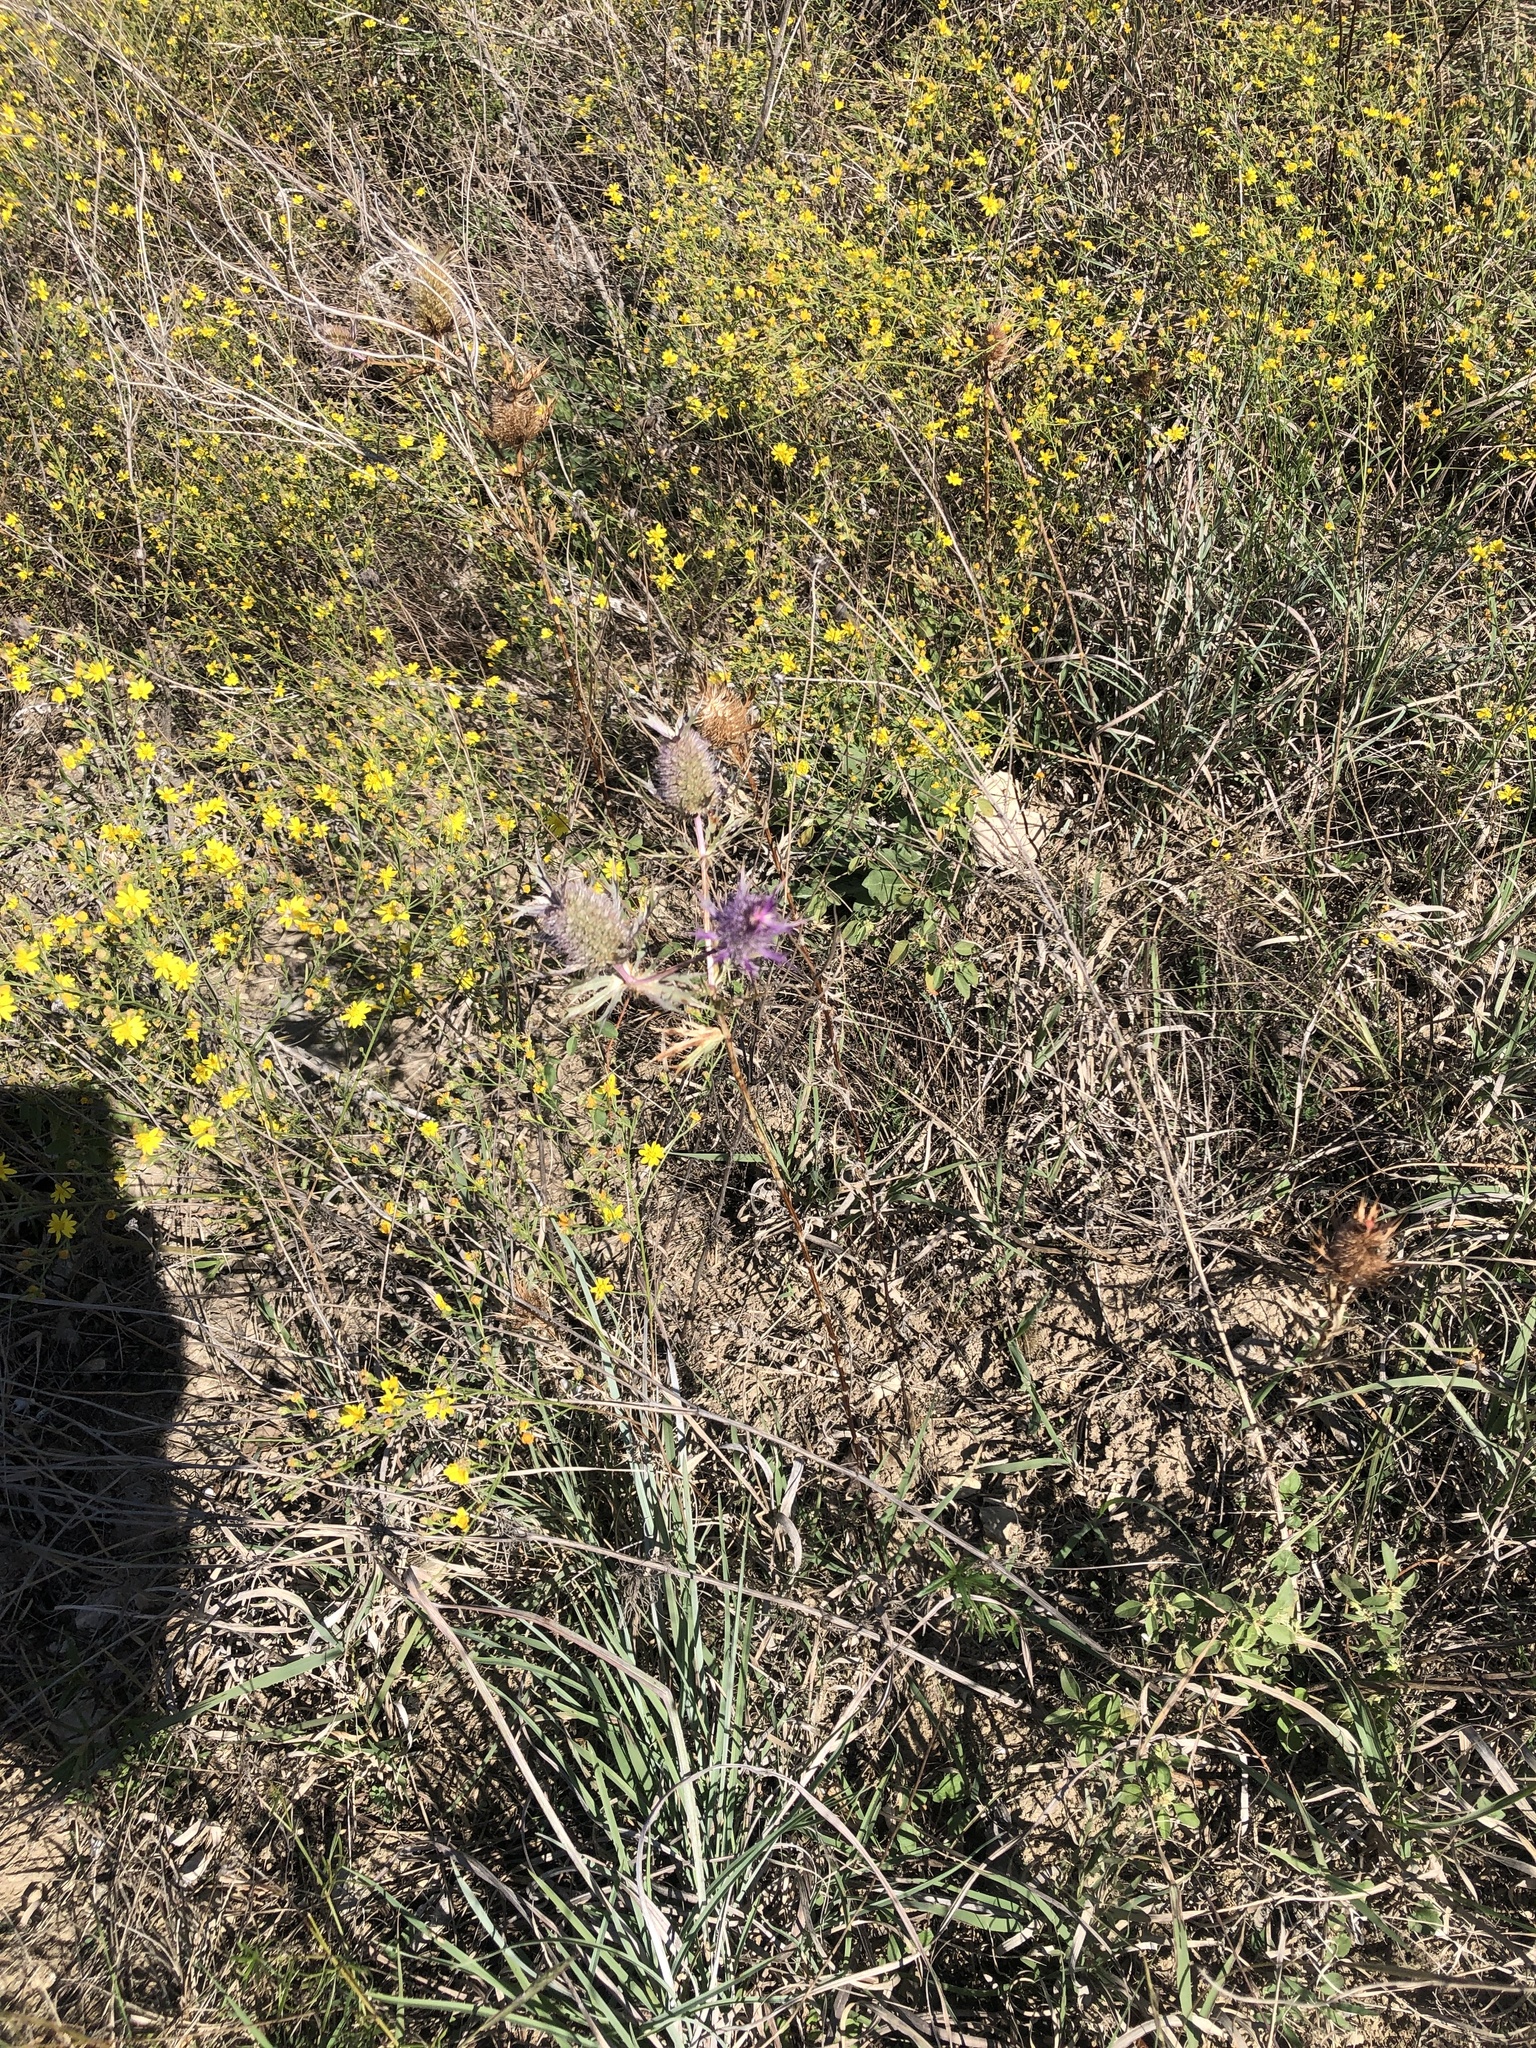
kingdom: Plantae
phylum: Tracheophyta
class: Magnoliopsida
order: Apiales
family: Apiaceae
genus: Eryngium
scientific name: Eryngium leavenworthii
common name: Leavenworth's eryngo
